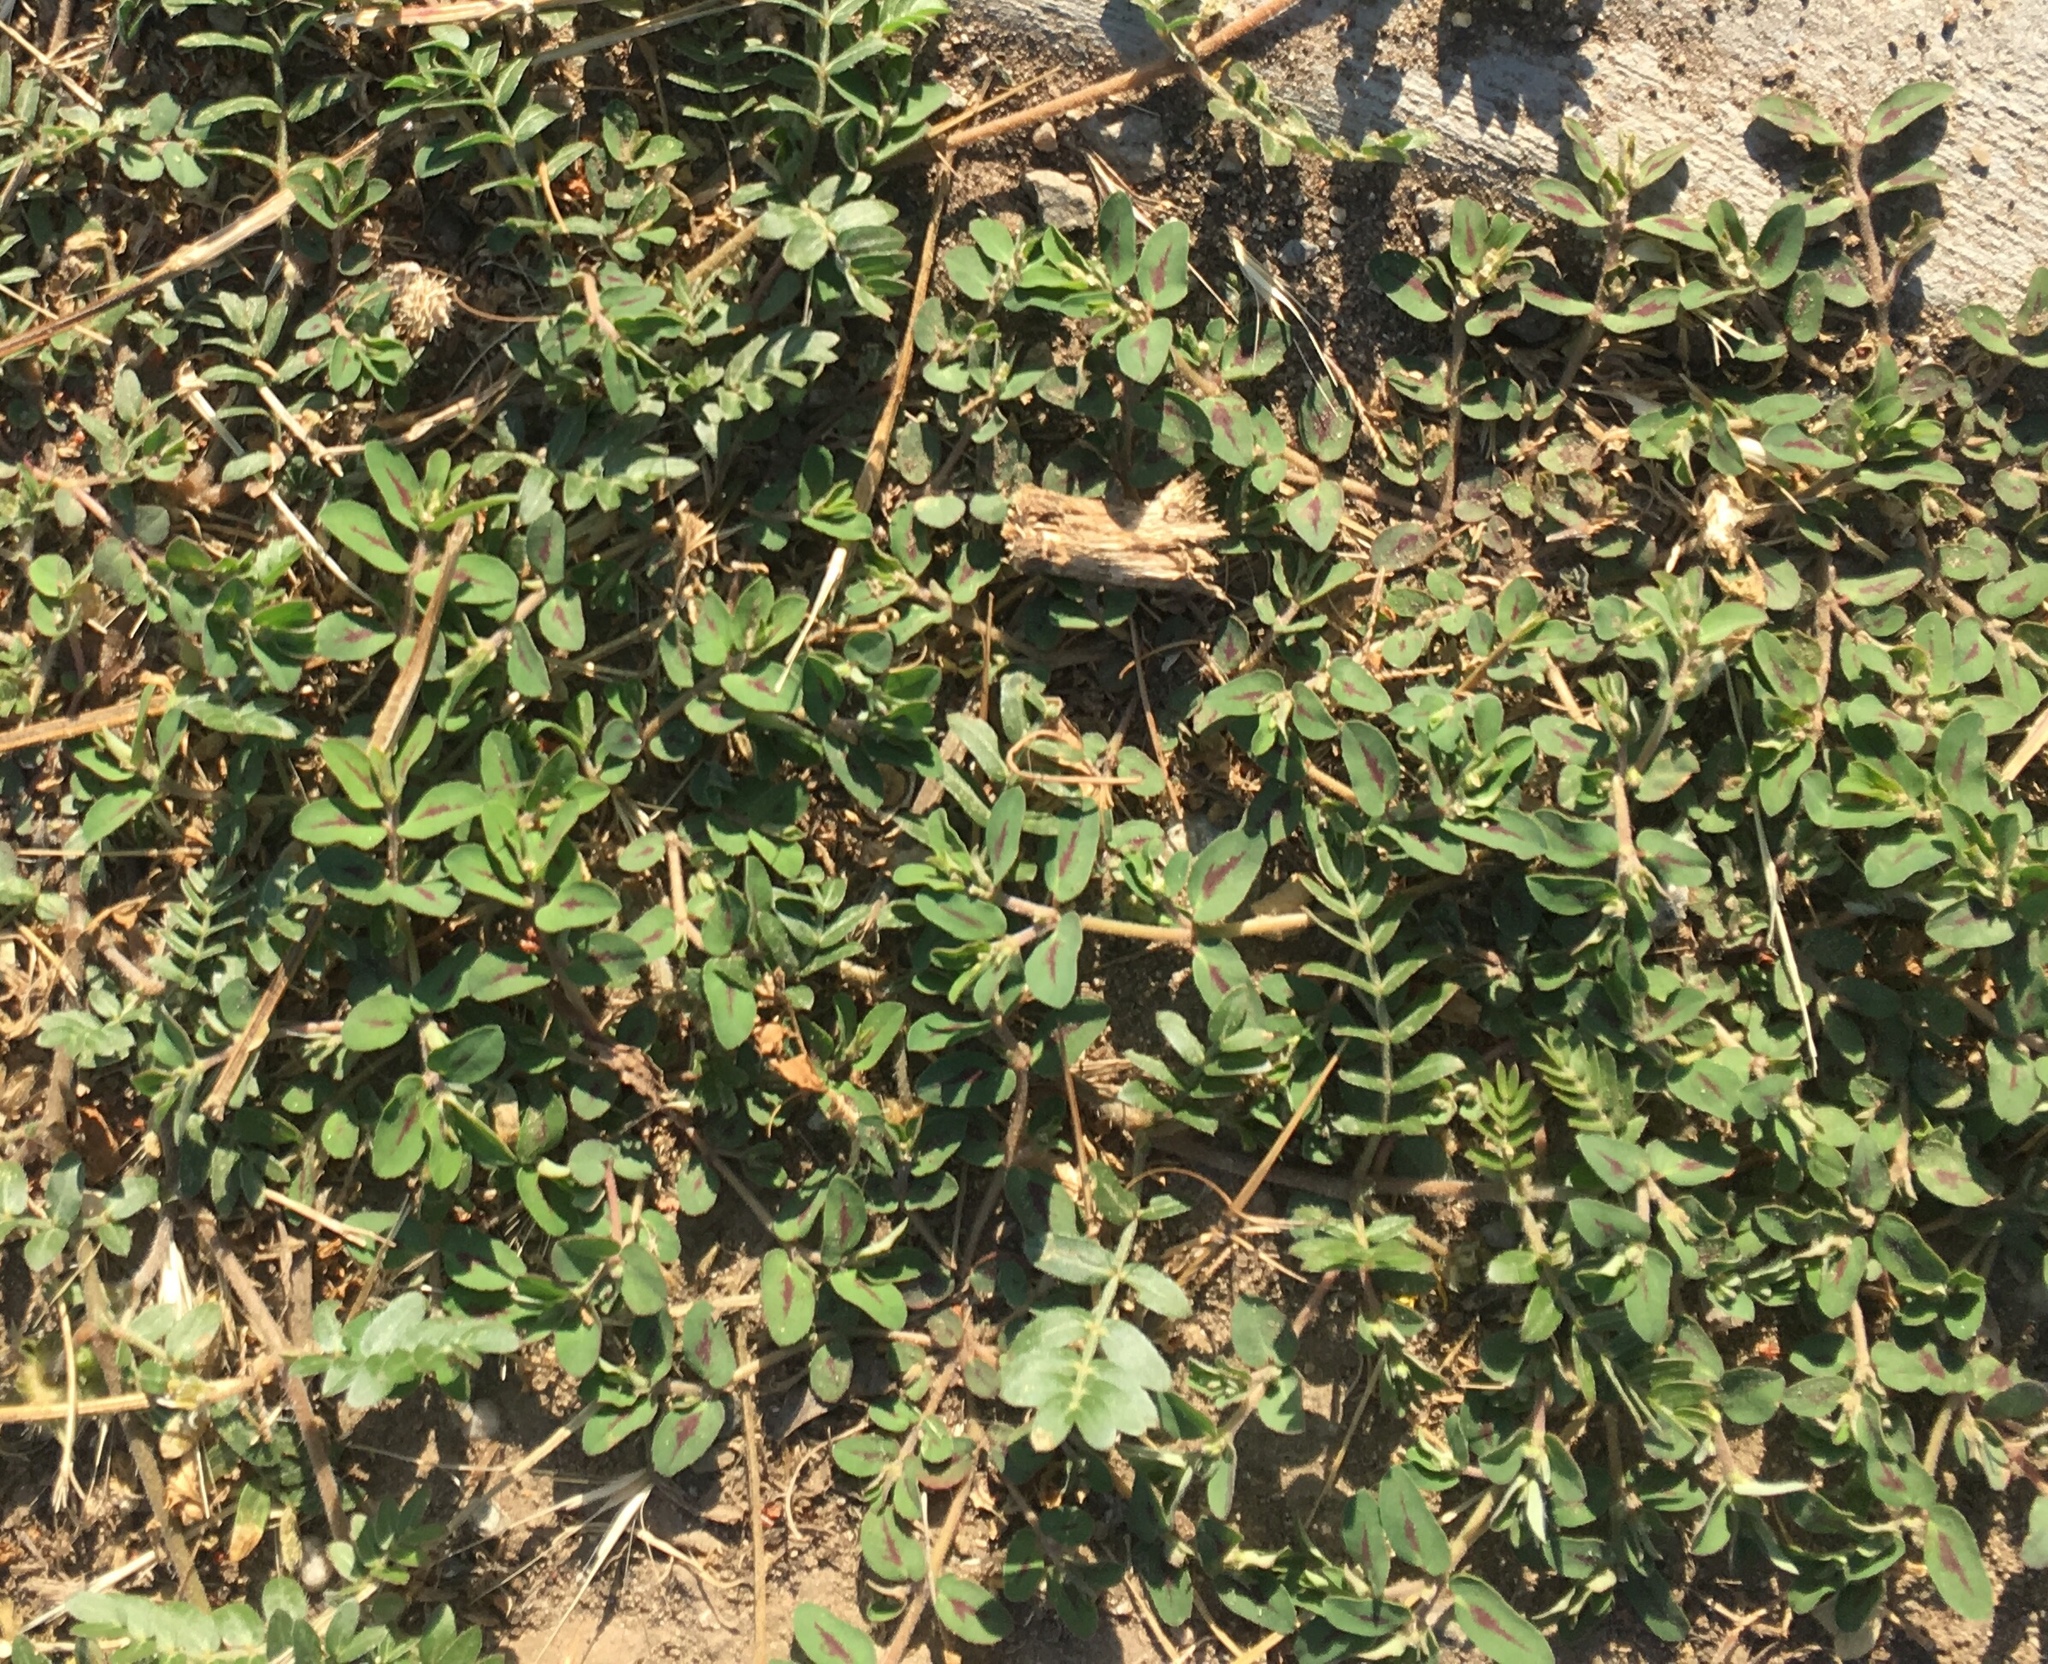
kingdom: Plantae
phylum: Tracheophyta
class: Magnoliopsida
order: Malpighiales
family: Euphorbiaceae
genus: Euphorbia
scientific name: Euphorbia maculata
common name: Spotted spurge
